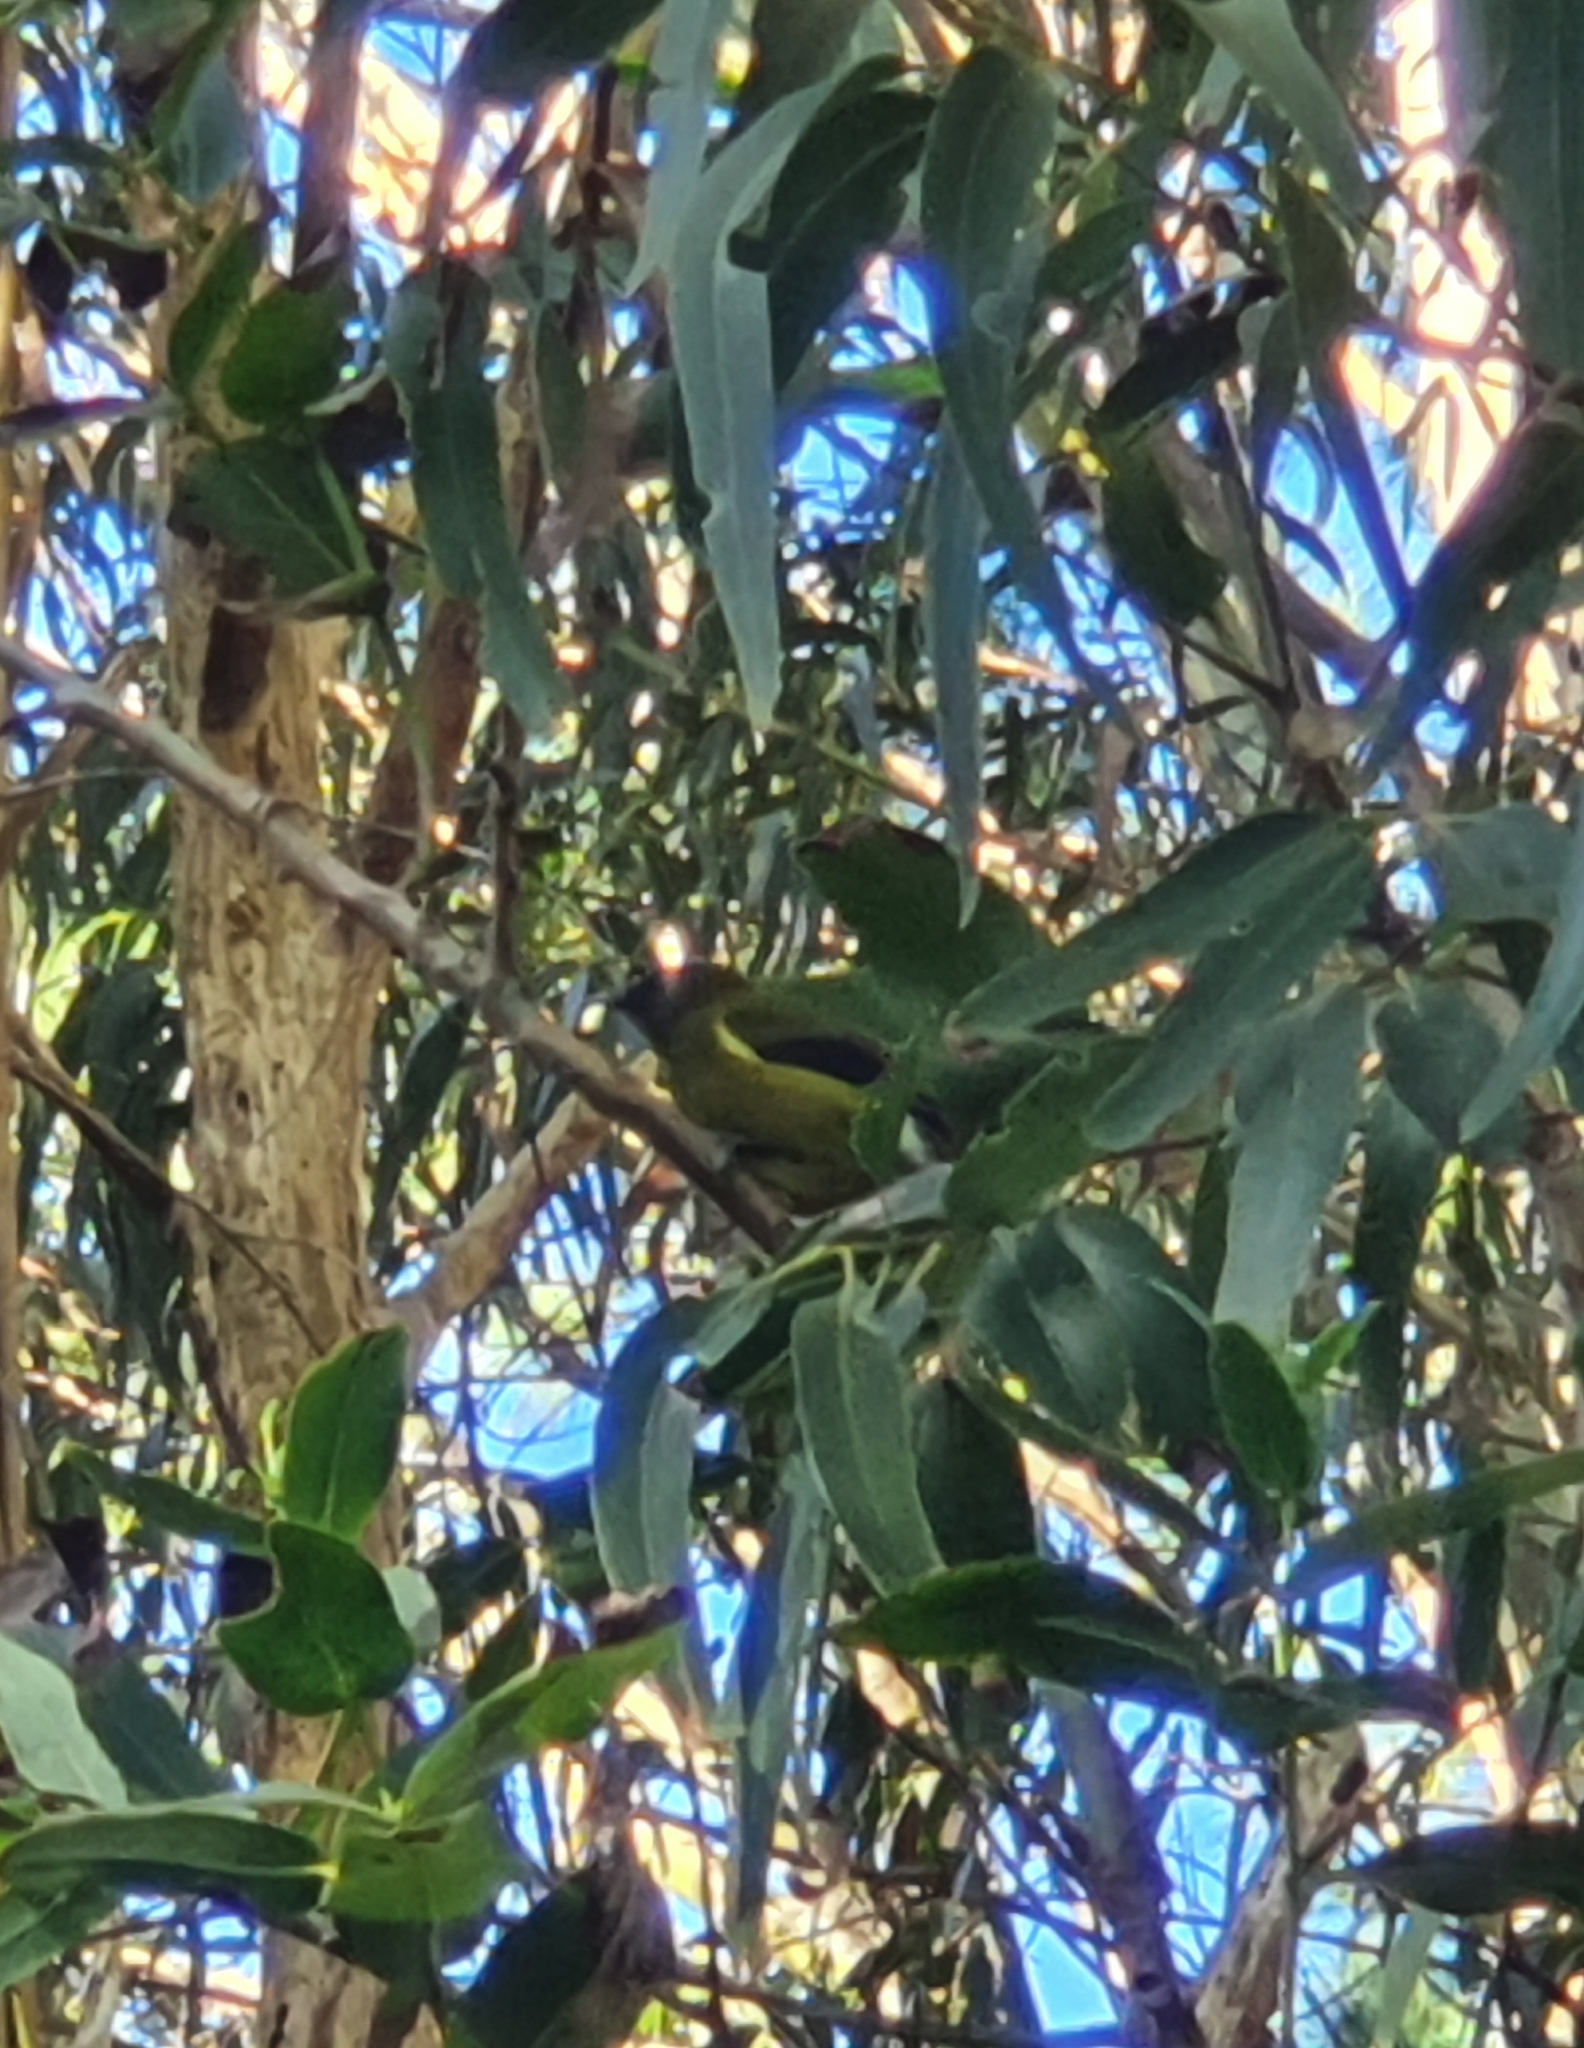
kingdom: Animalia
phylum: Chordata
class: Aves
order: Passeriformes
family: Meliphagidae
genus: Anthornis
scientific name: Anthornis melanura
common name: New zealand bellbird
